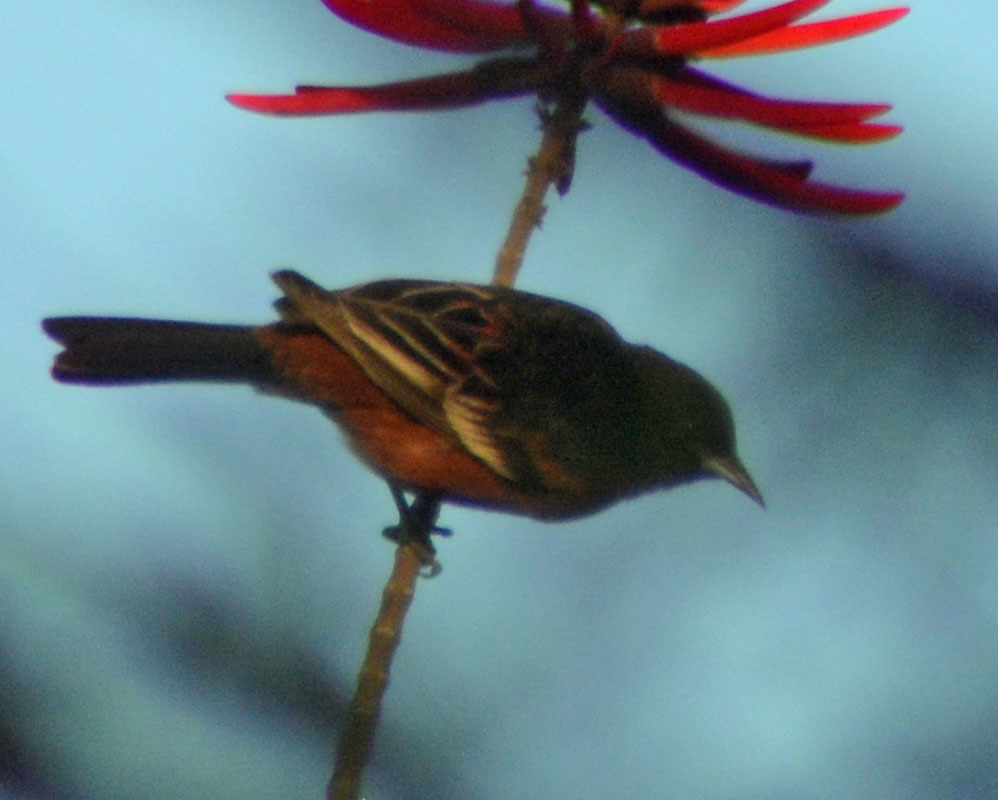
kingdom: Animalia
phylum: Chordata
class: Aves
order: Passeriformes
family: Icteridae
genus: Icterus
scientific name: Icterus spurius
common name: Orchard oriole
